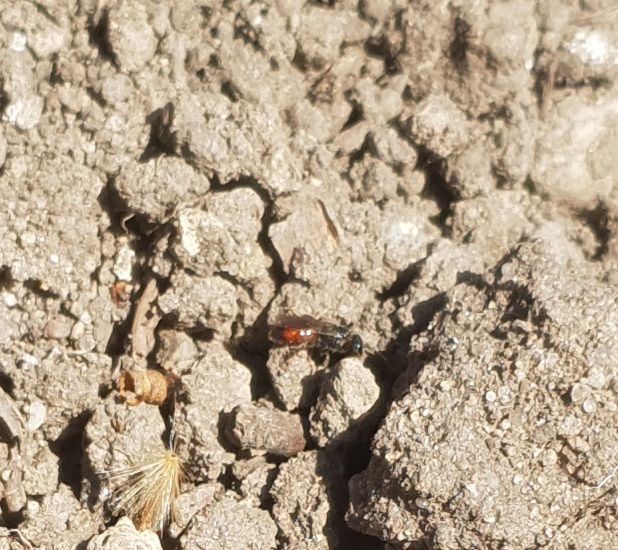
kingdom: Animalia
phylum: Arthropoda
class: Insecta
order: Hymenoptera
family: Halictidae
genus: Sphecodes
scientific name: Sphecodes
